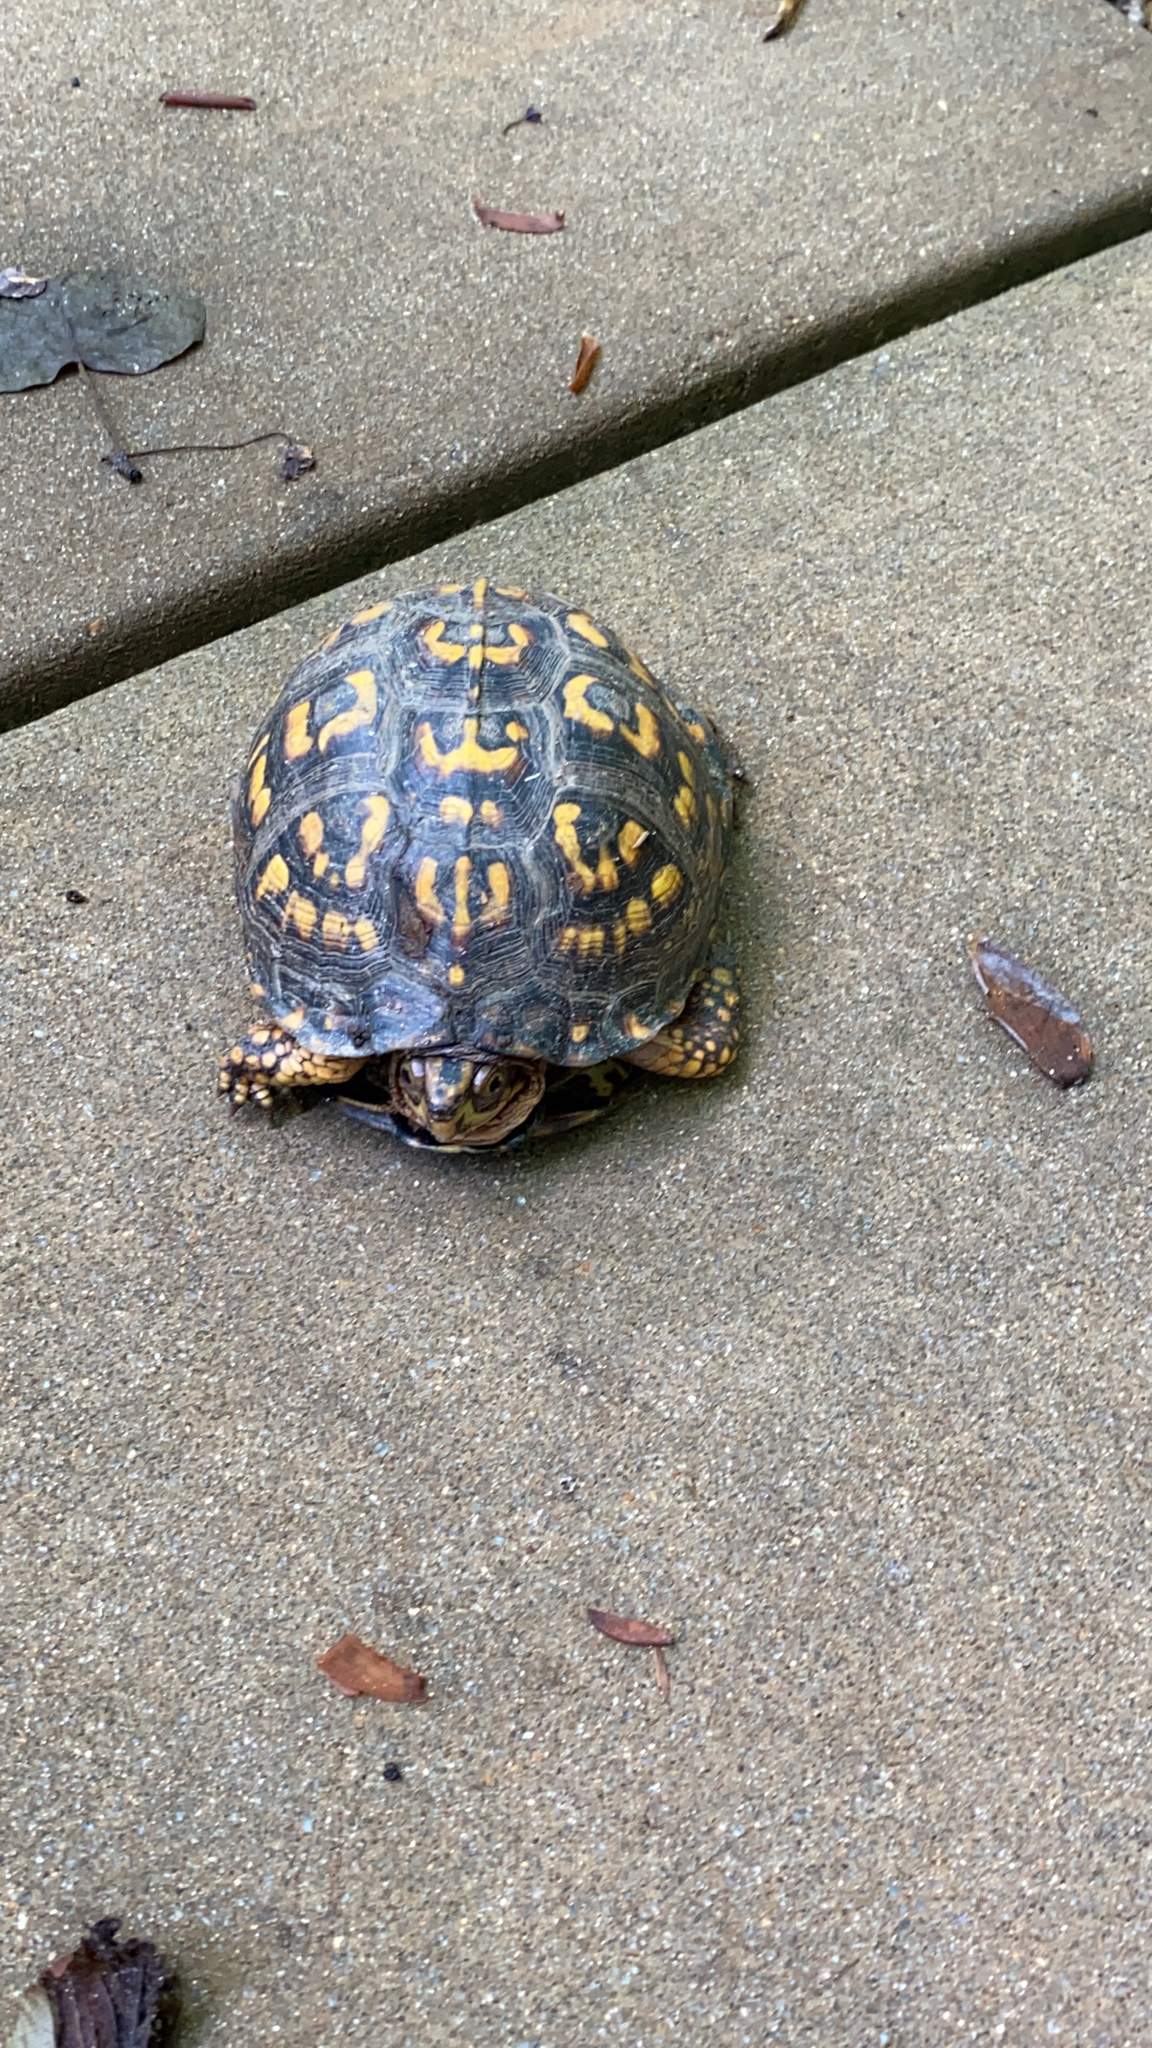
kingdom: Animalia
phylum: Chordata
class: Testudines
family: Emydidae
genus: Terrapene
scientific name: Terrapene carolina
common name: Common box turtle
